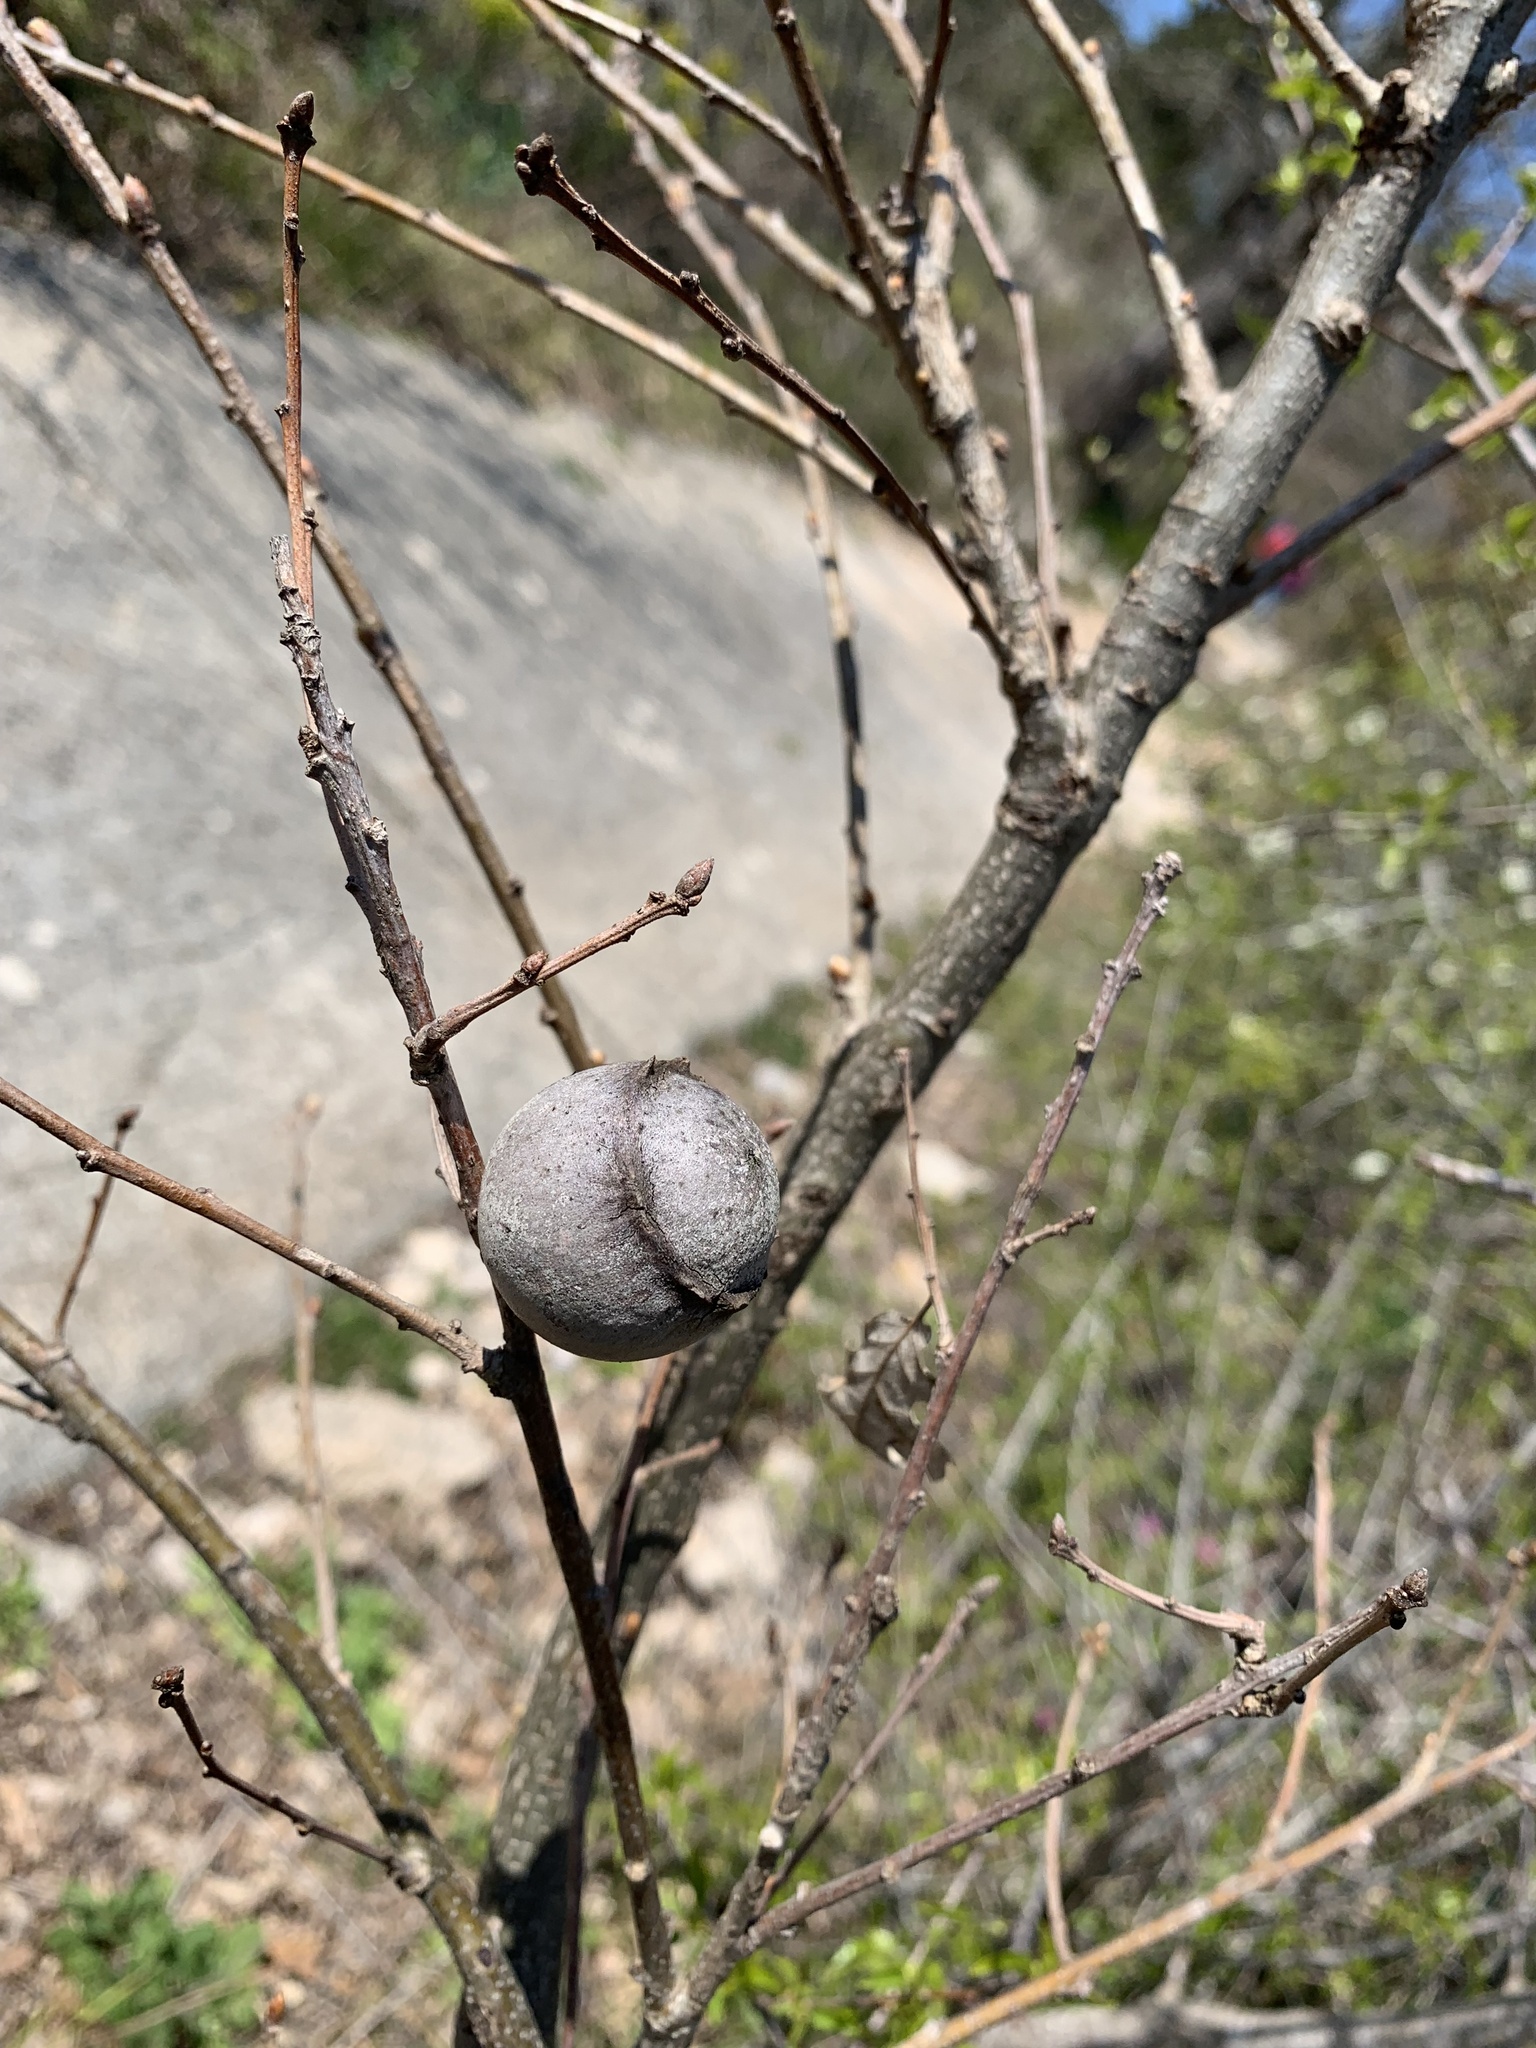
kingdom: Animalia
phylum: Arthropoda
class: Insecta
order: Hymenoptera
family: Cynipidae
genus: Andricus
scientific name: Andricus quercustozae
